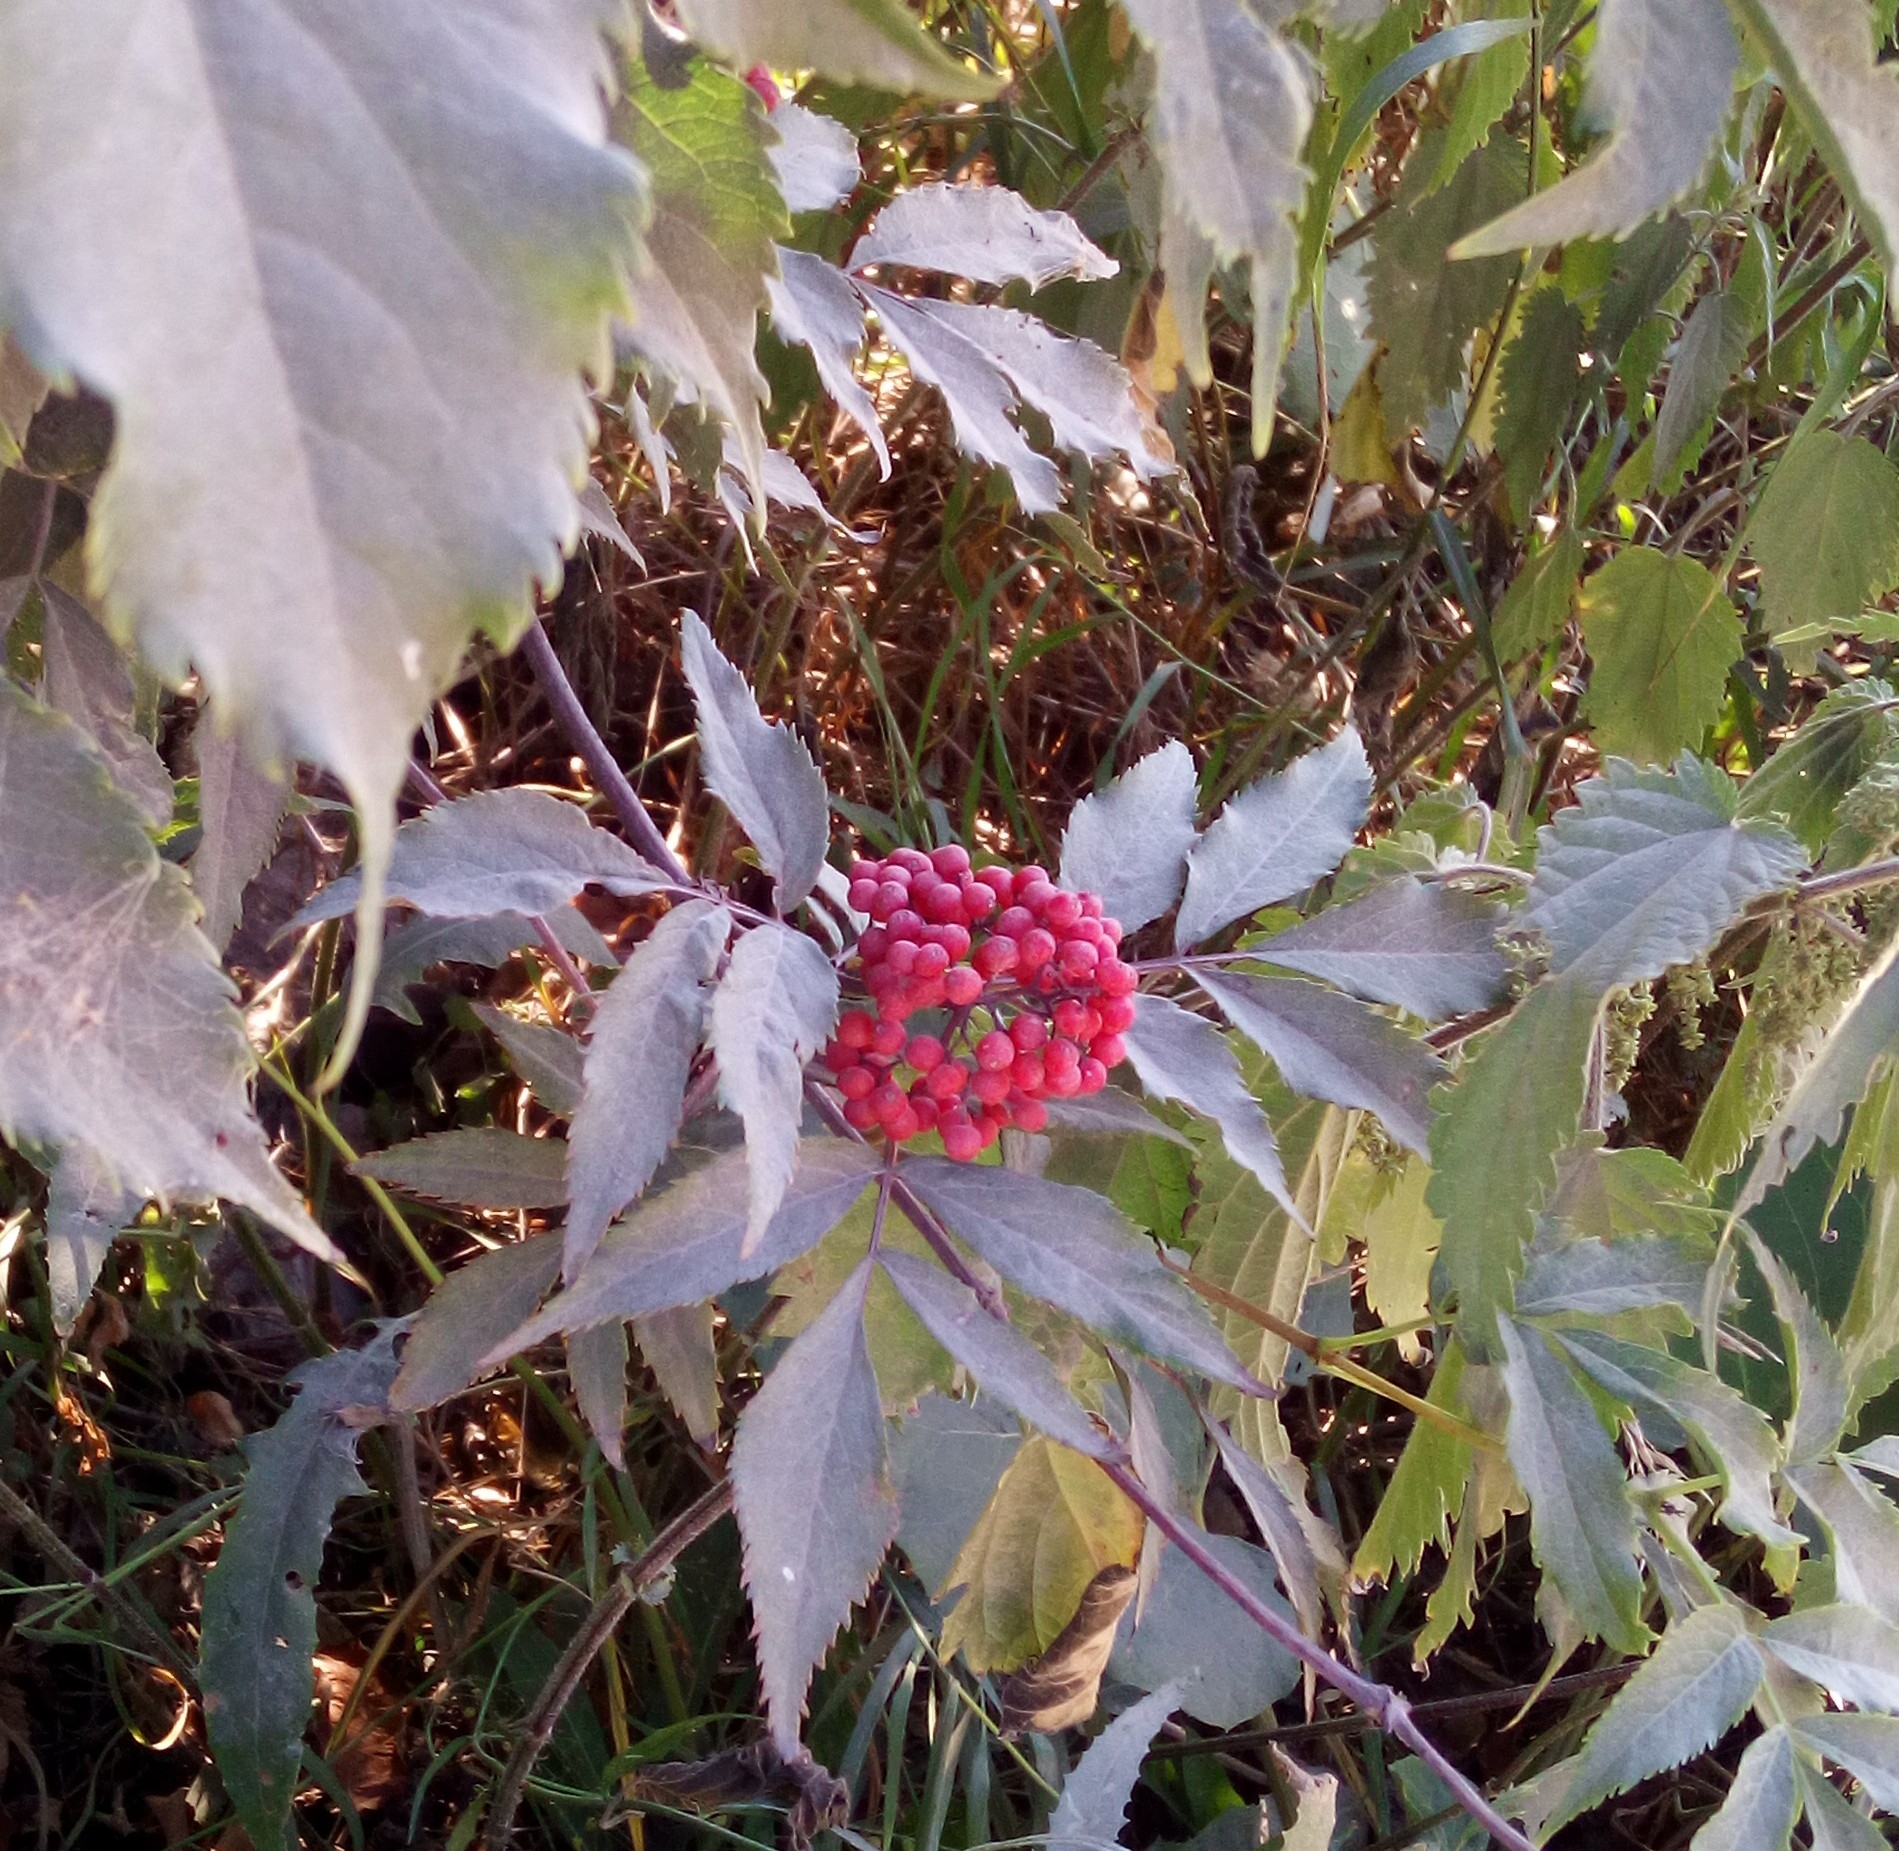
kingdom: Plantae
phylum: Tracheophyta
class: Magnoliopsida
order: Dipsacales
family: Viburnaceae
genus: Sambucus
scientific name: Sambucus racemosa
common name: Red-berried elder
